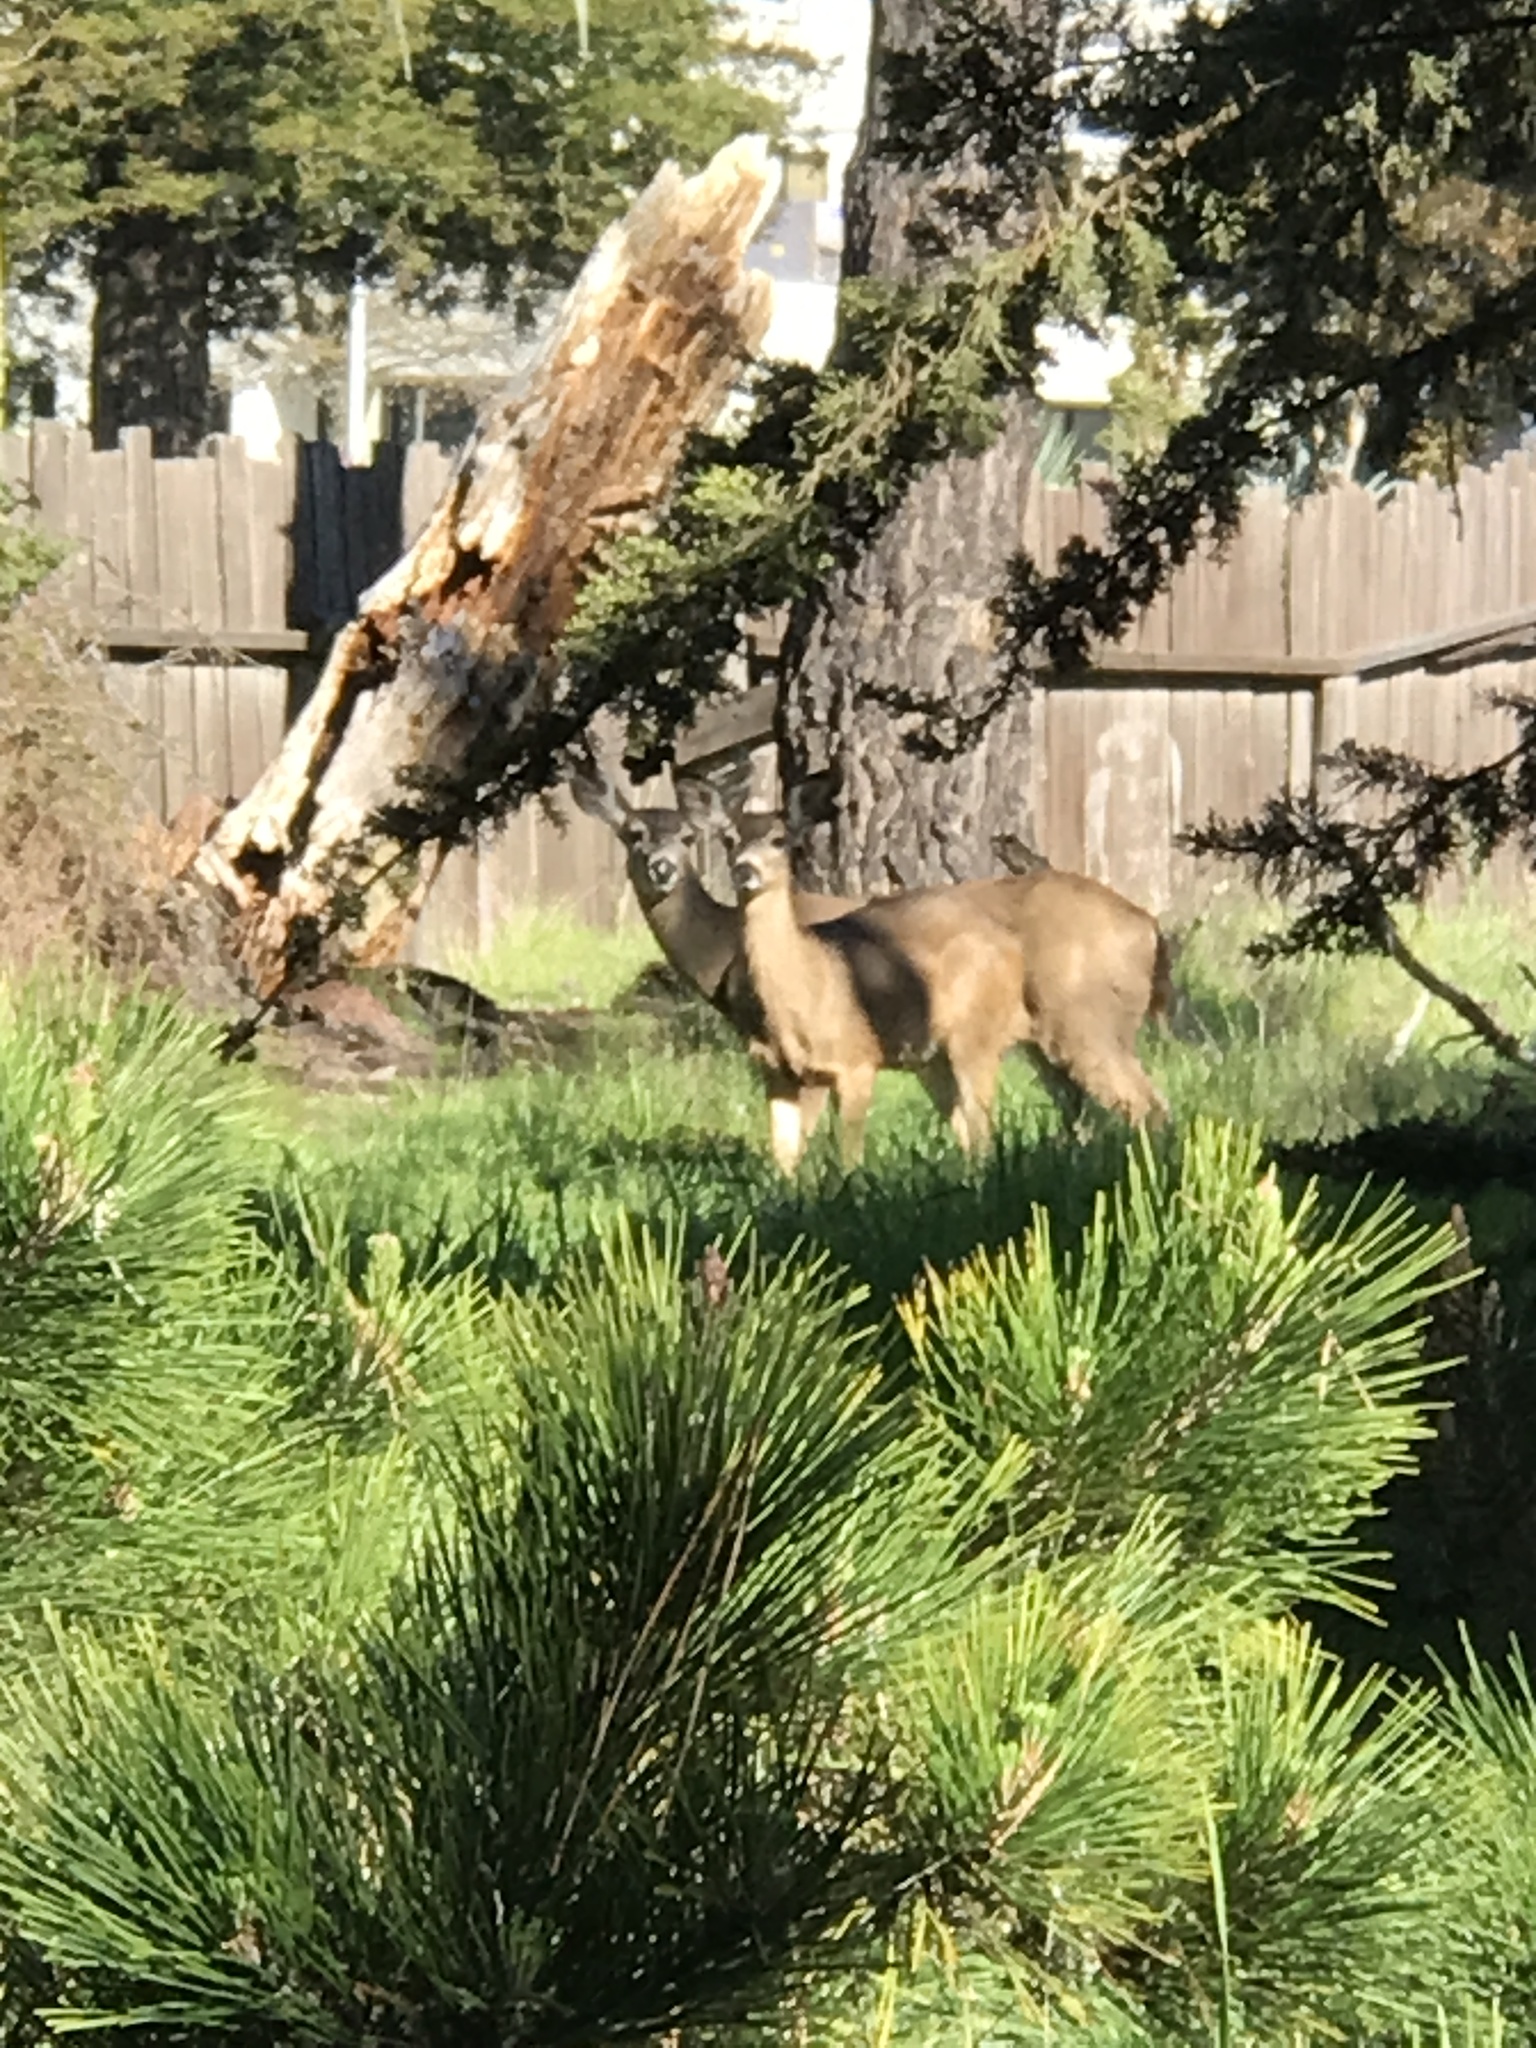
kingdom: Animalia
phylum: Chordata
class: Mammalia
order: Artiodactyla
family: Cervidae
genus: Odocoileus
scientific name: Odocoileus hemionus
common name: Mule deer
